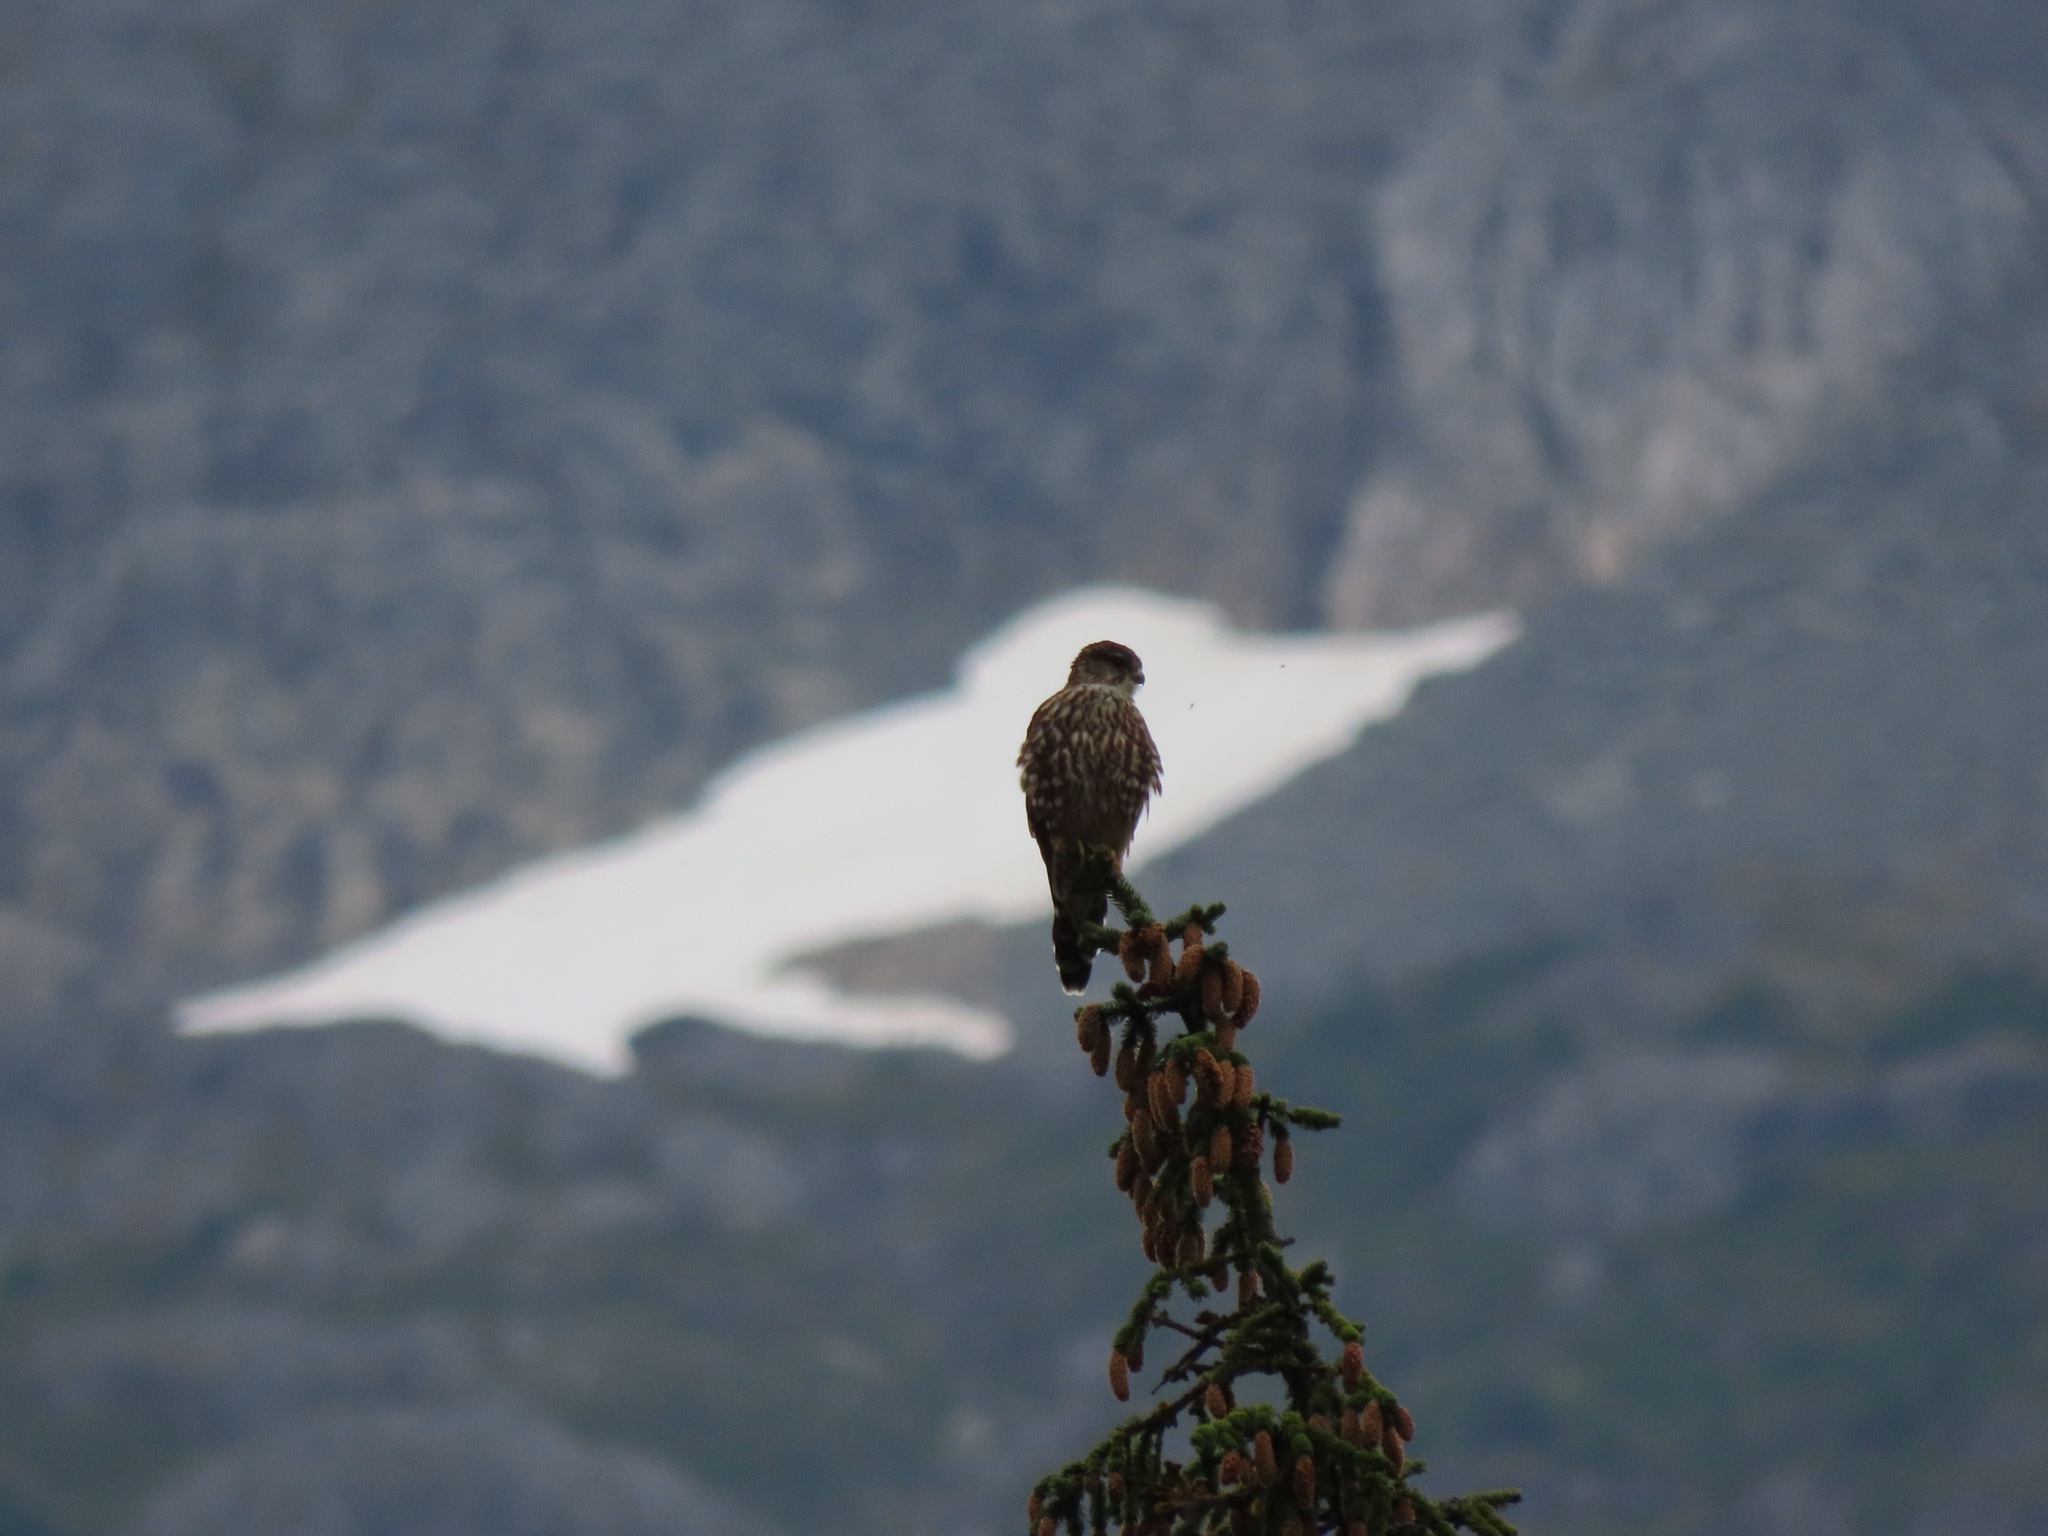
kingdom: Animalia
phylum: Chordata
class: Aves
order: Falconiformes
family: Falconidae
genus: Falco
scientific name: Falco columbarius
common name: Merlin
